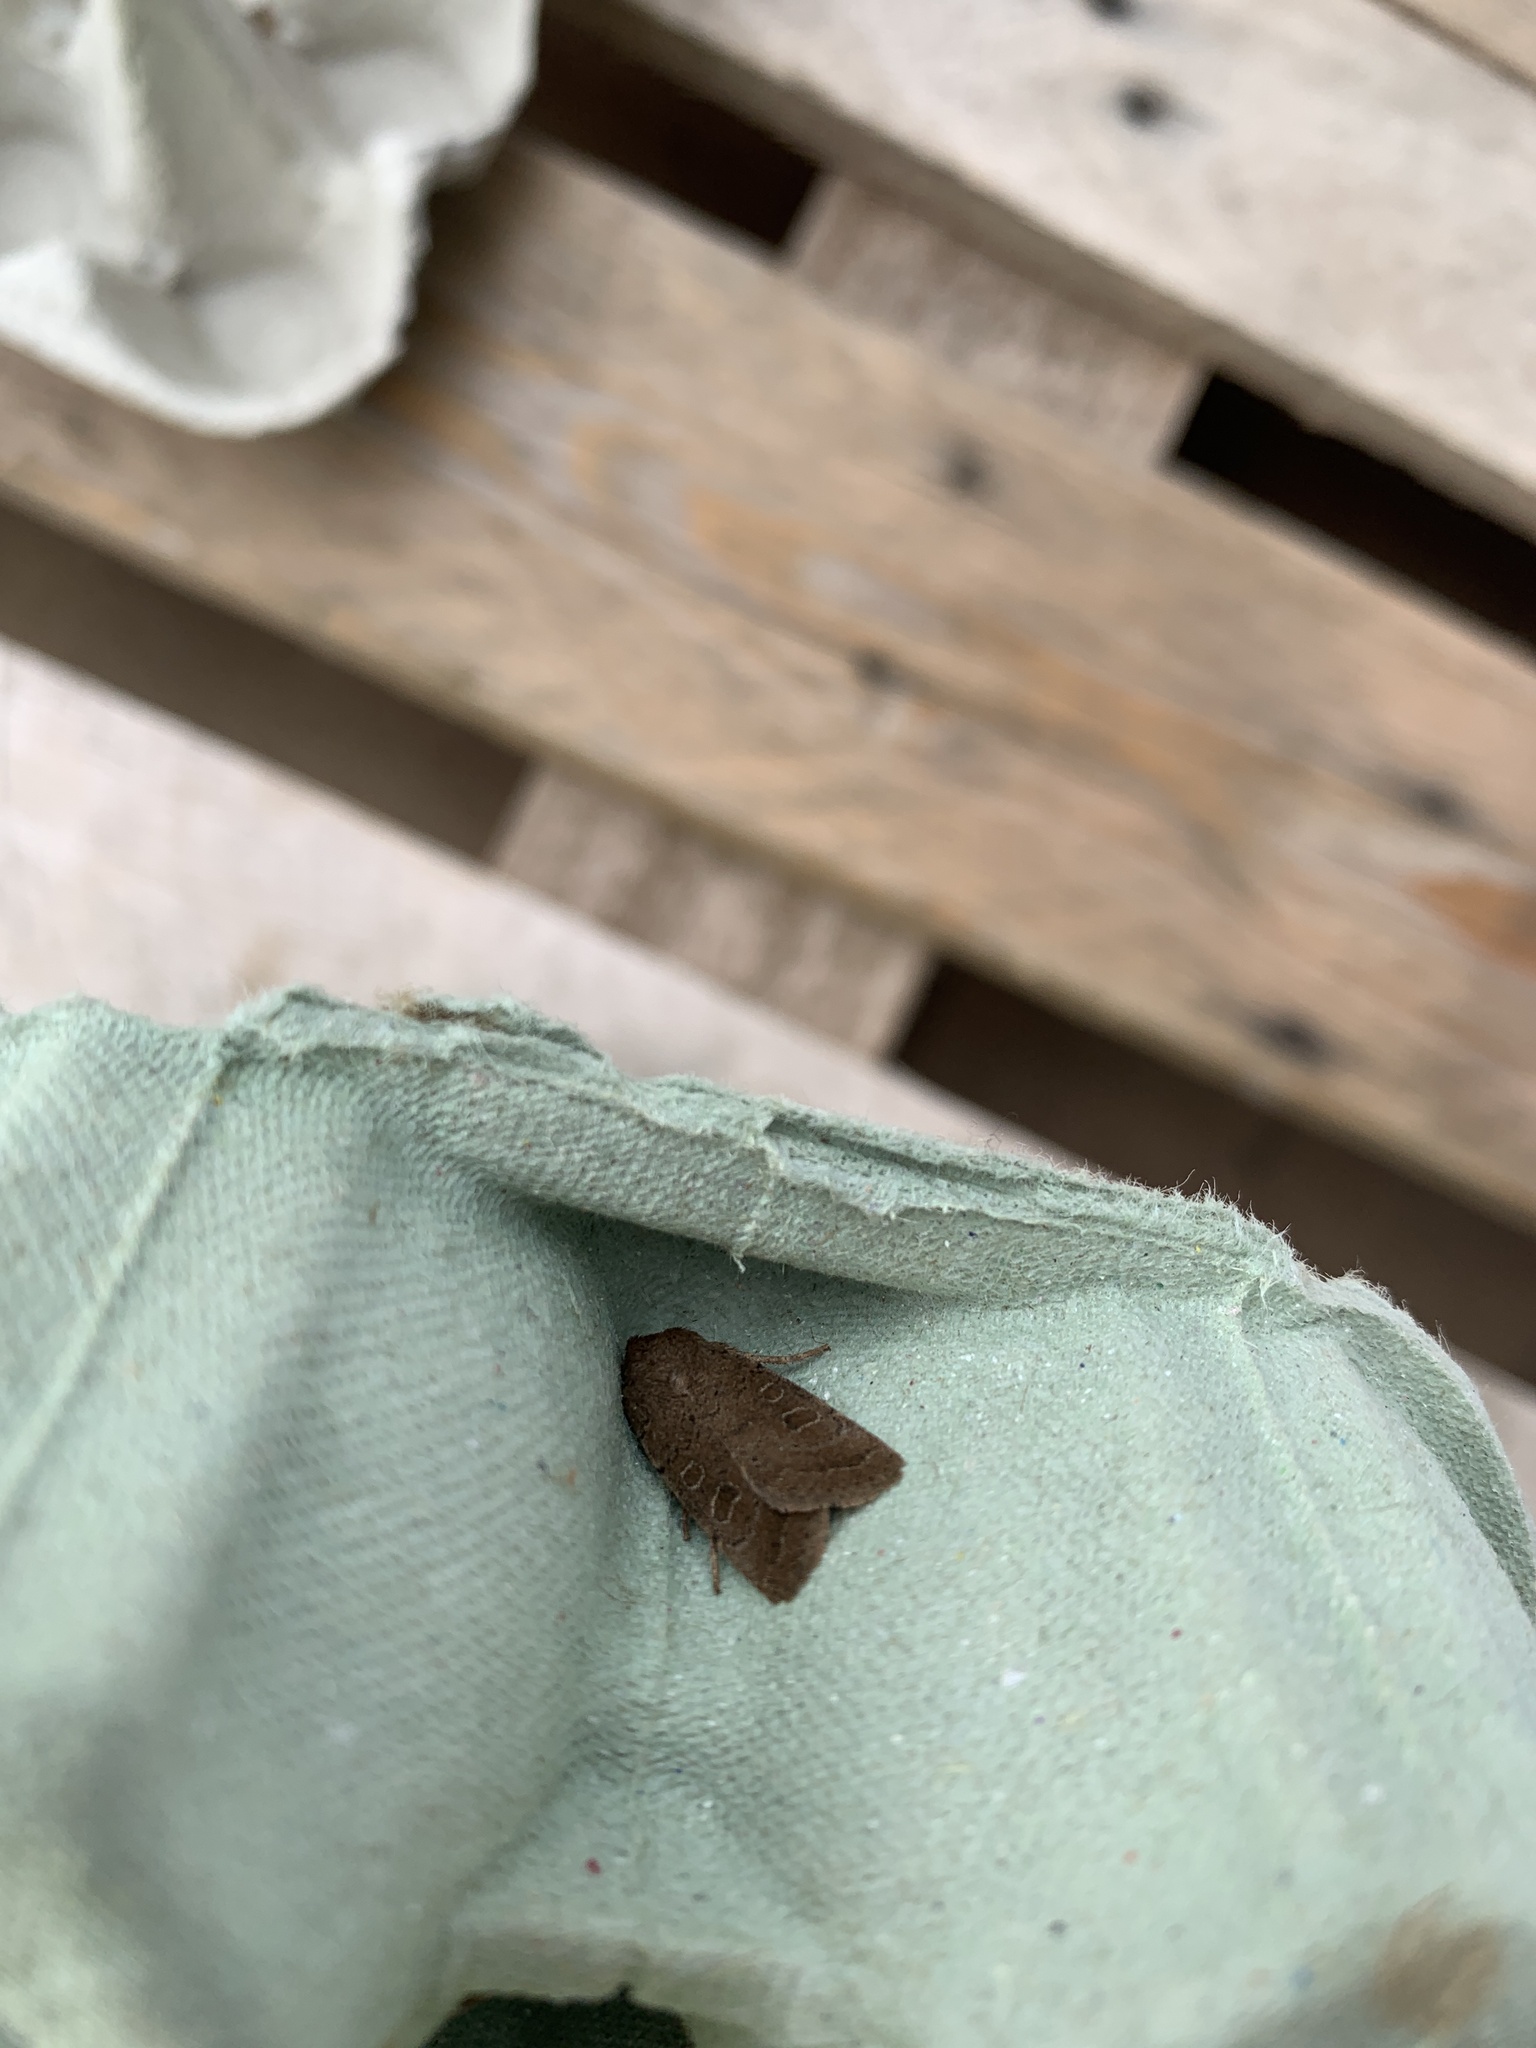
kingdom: Animalia
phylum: Arthropoda
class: Insecta
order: Lepidoptera
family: Noctuidae
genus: Hoplodrina
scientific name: Hoplodrina blanda
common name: Rustic
